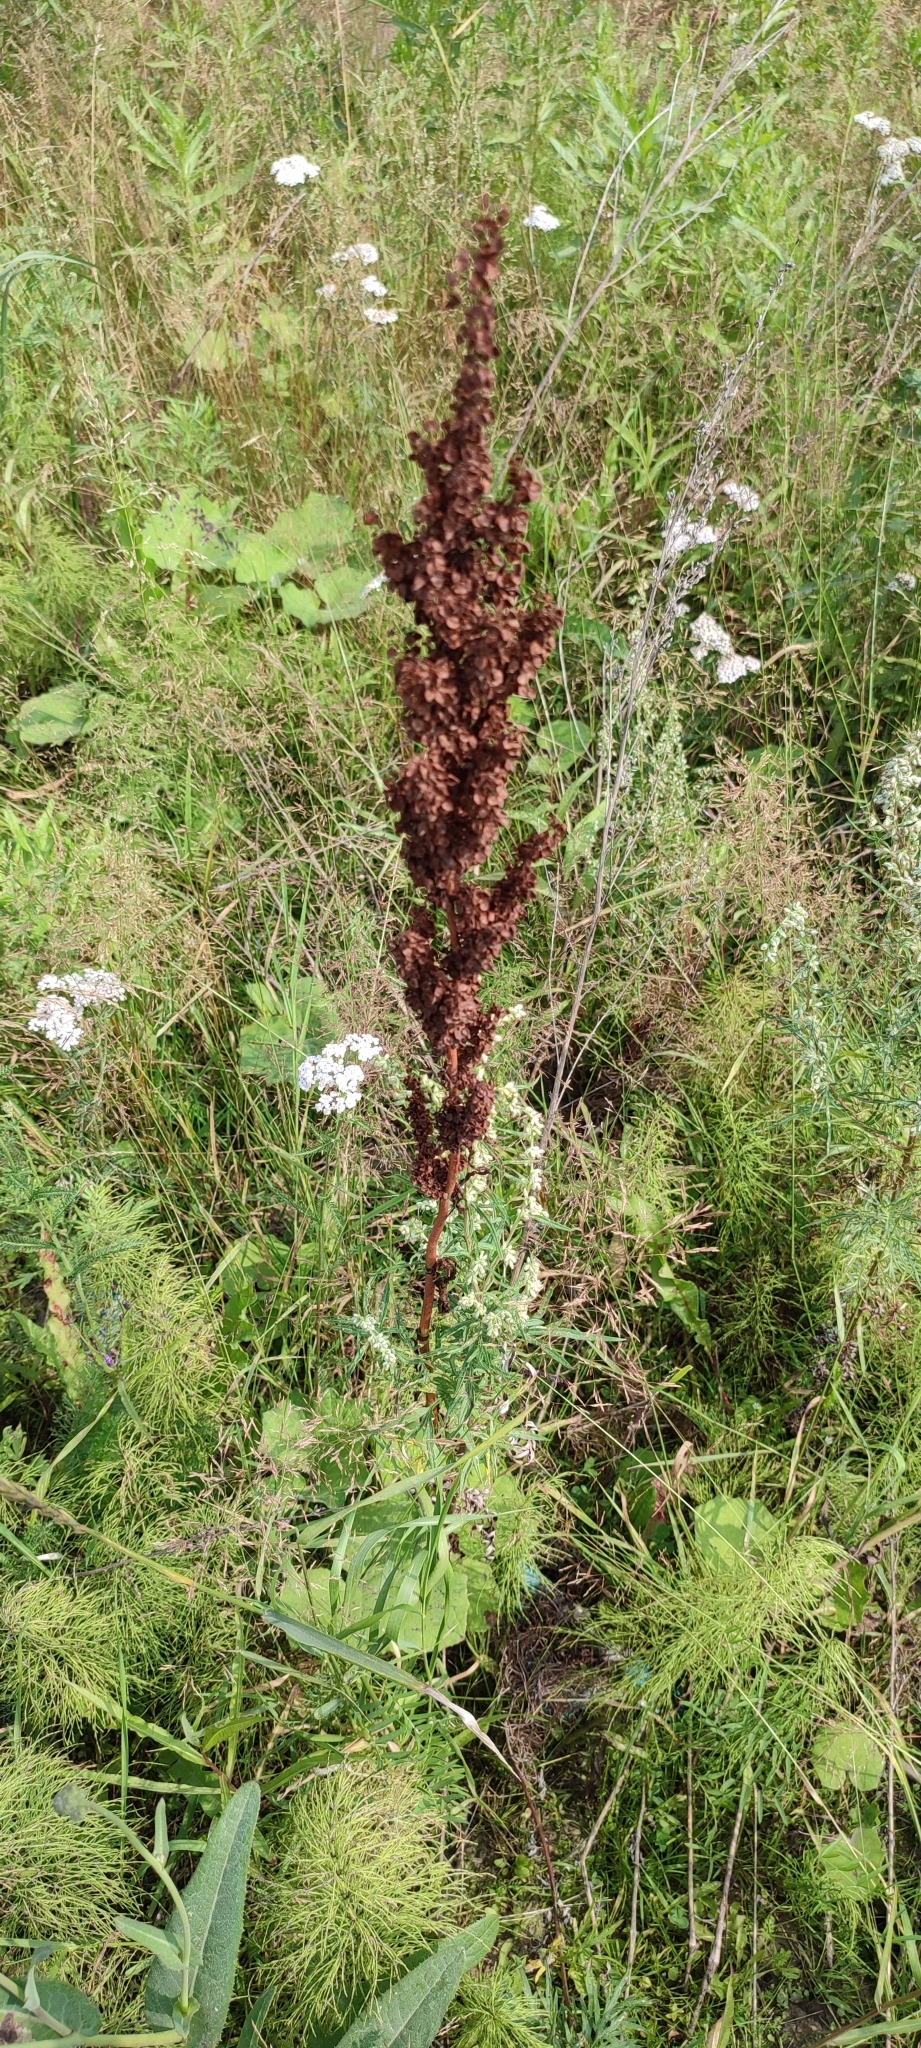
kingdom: Plantae
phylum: Tracheophyta
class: Magnoliopsida
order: Caryophyllales
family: Polygonaceae
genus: Rumex
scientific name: Rumex pseudonatronatus
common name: Field dock
